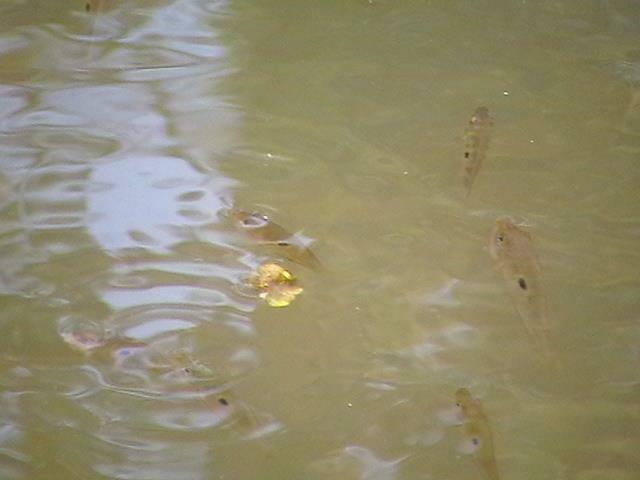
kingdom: Animalia
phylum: Chordata
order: Perciformes
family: Cichlidae
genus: Etroplus
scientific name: Etroplus maculatus
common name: Orange chromide
